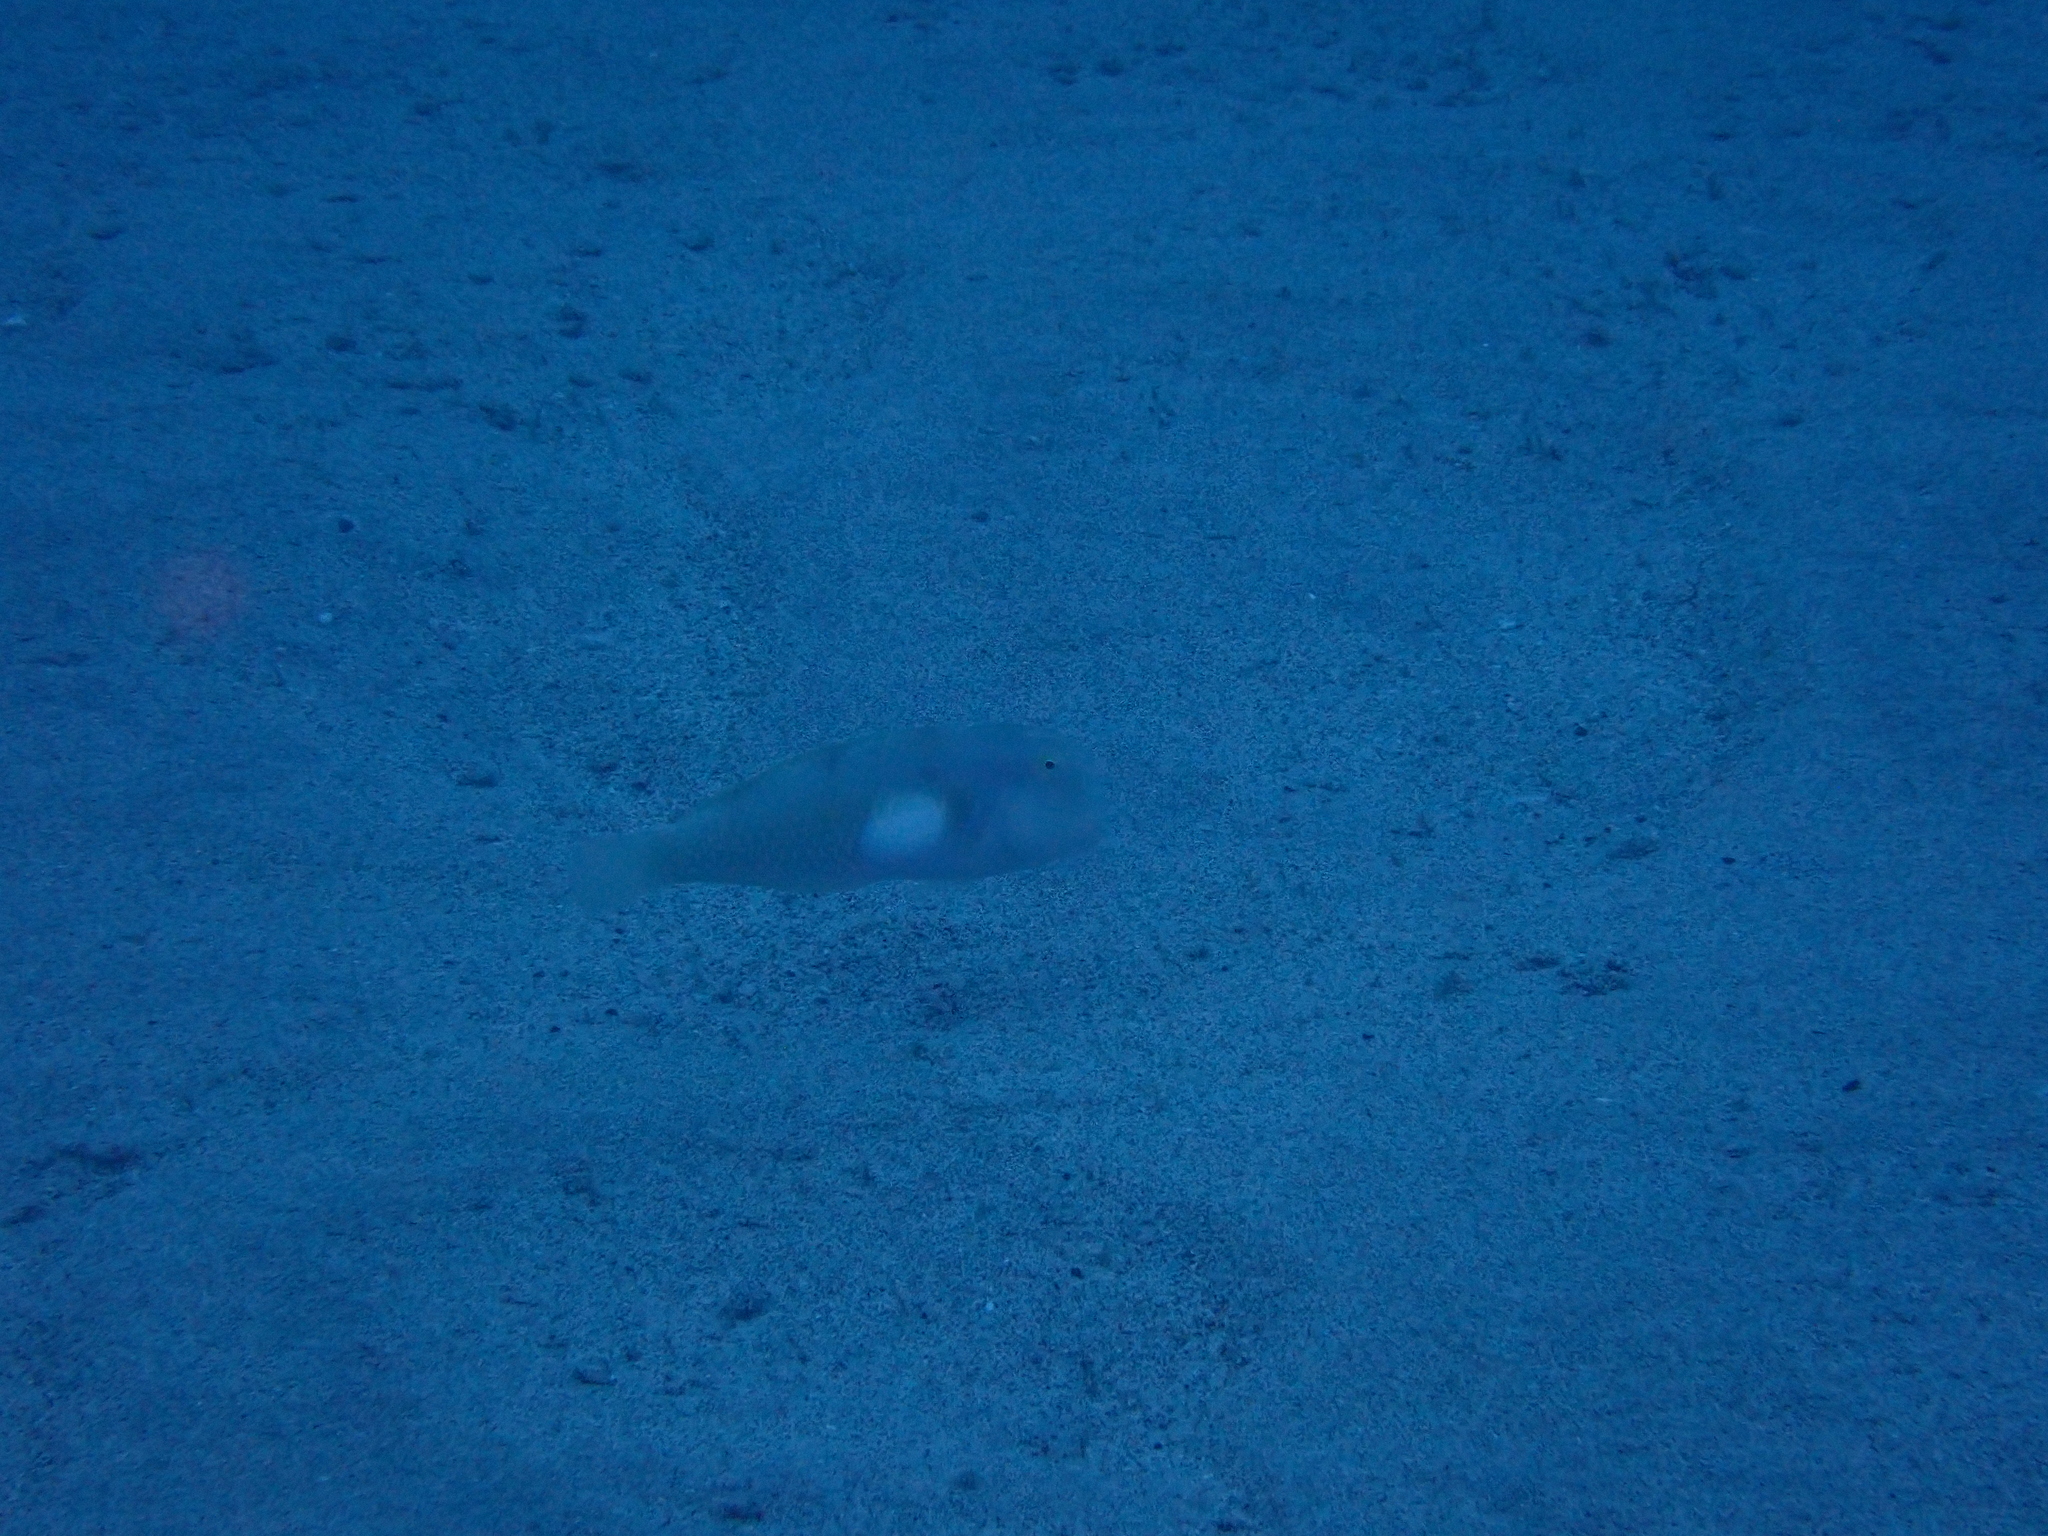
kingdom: Animalia
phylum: Chordata
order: Perciformes
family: Labridae
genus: Iniistius
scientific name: Iniistius aneitensis
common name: Yellowblotch razorfish
